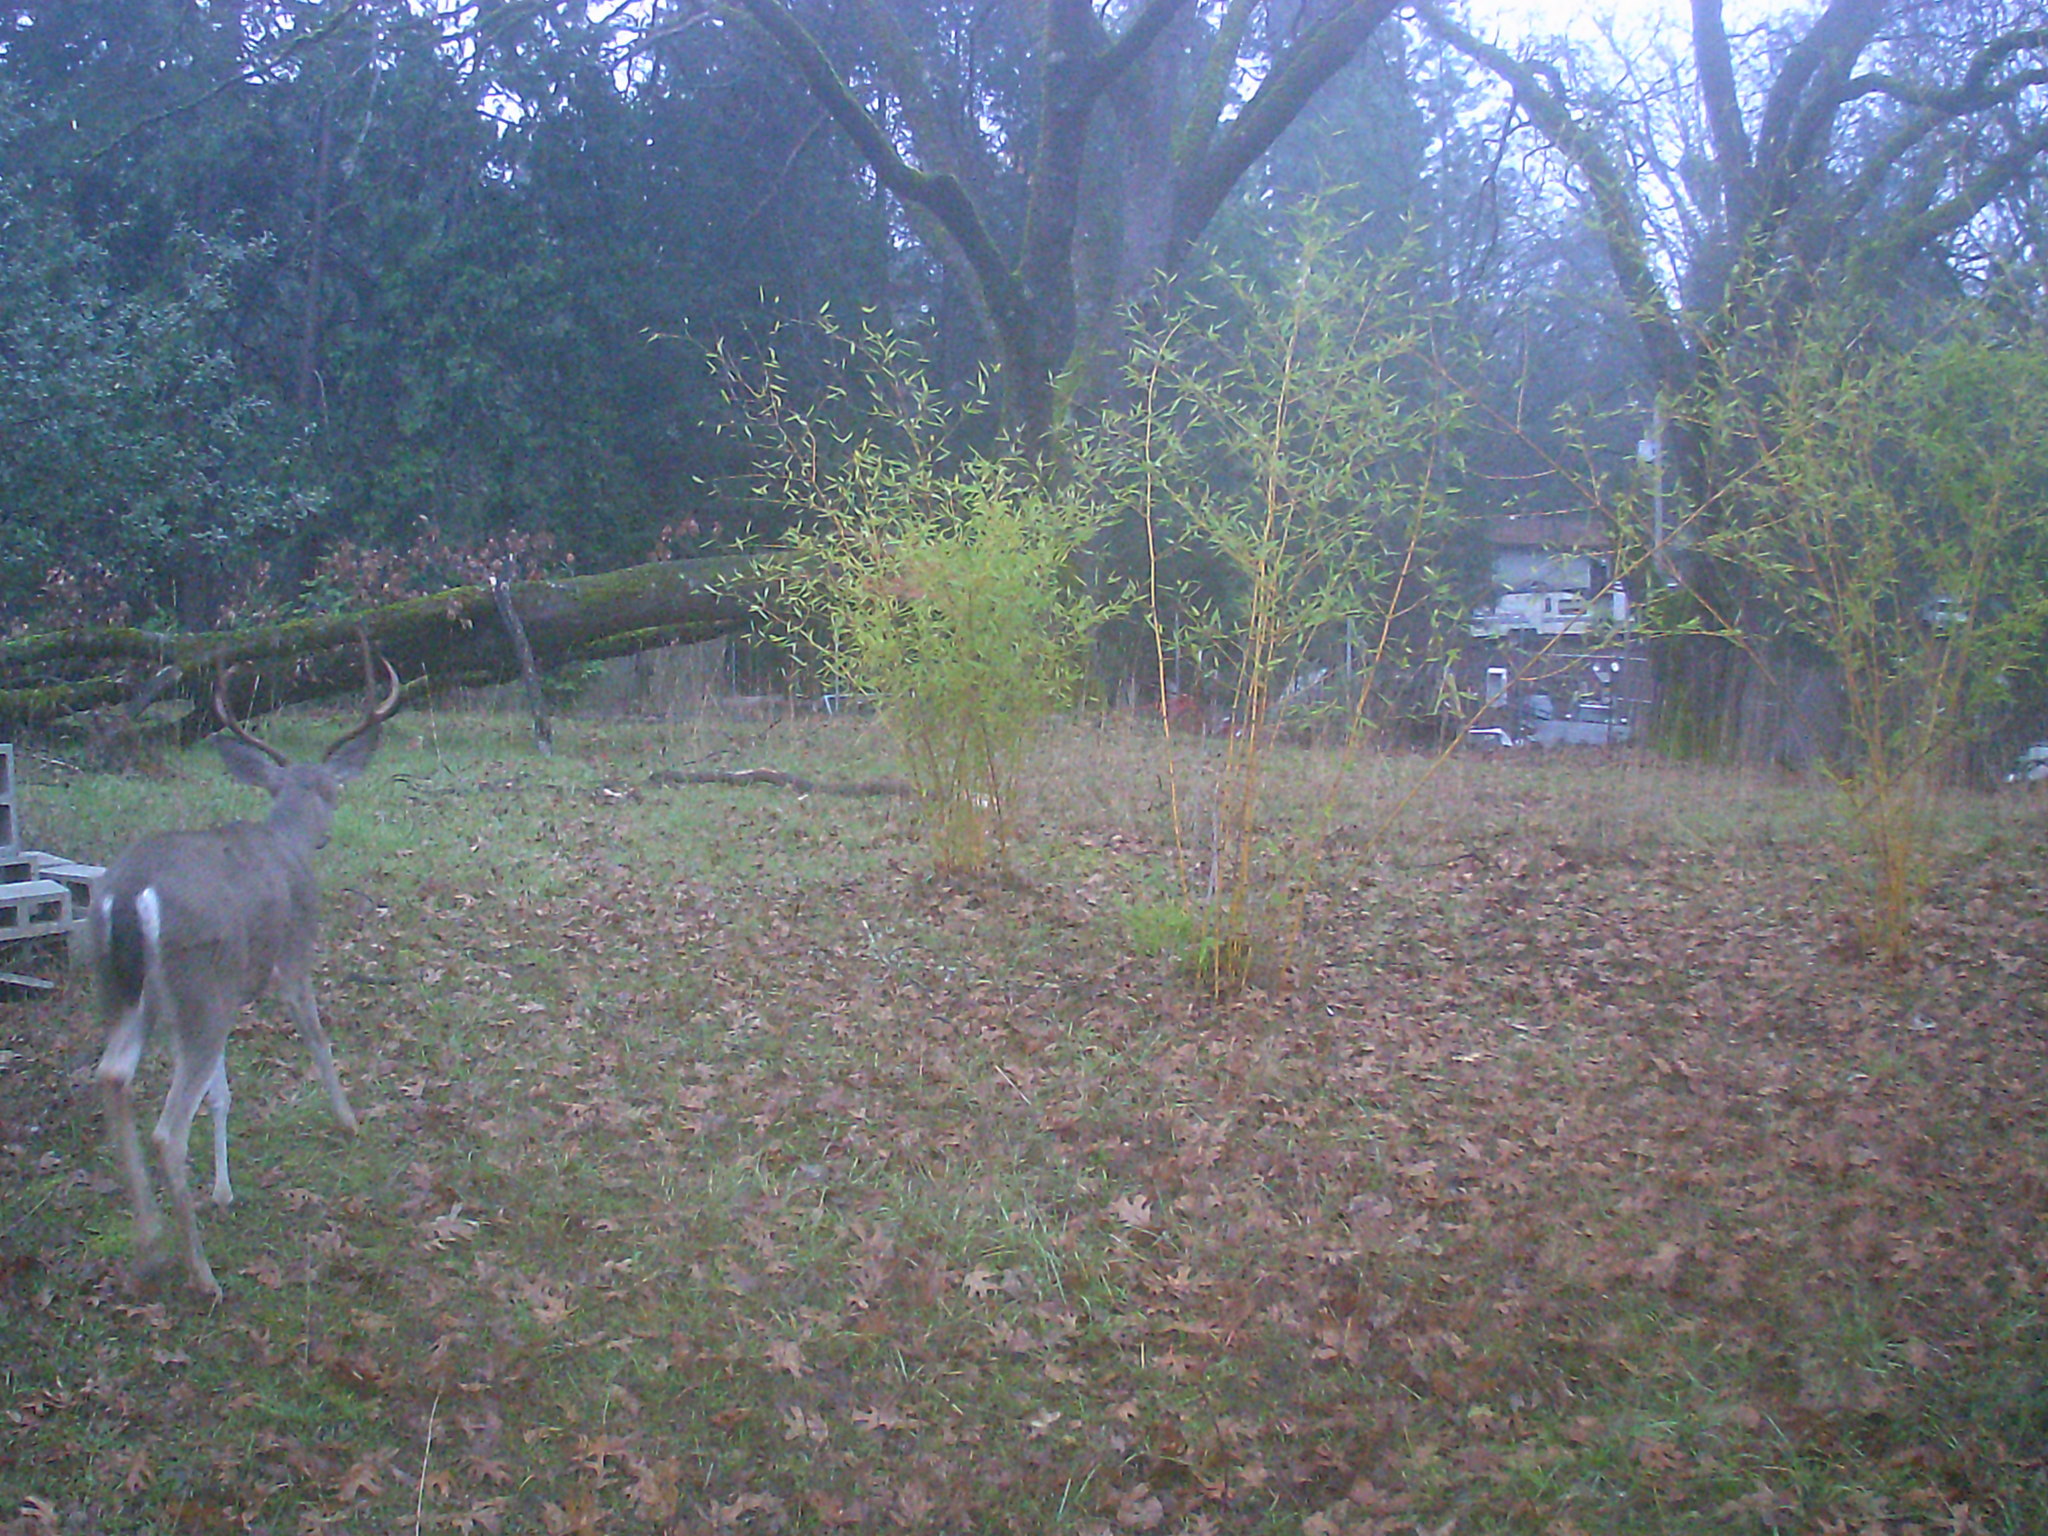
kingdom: Animalia
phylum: Chordata
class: Mammalia
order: Artiodactyla
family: Cervidae
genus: Odocoileus
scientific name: Odocoileus hemionus
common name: Mule deer
